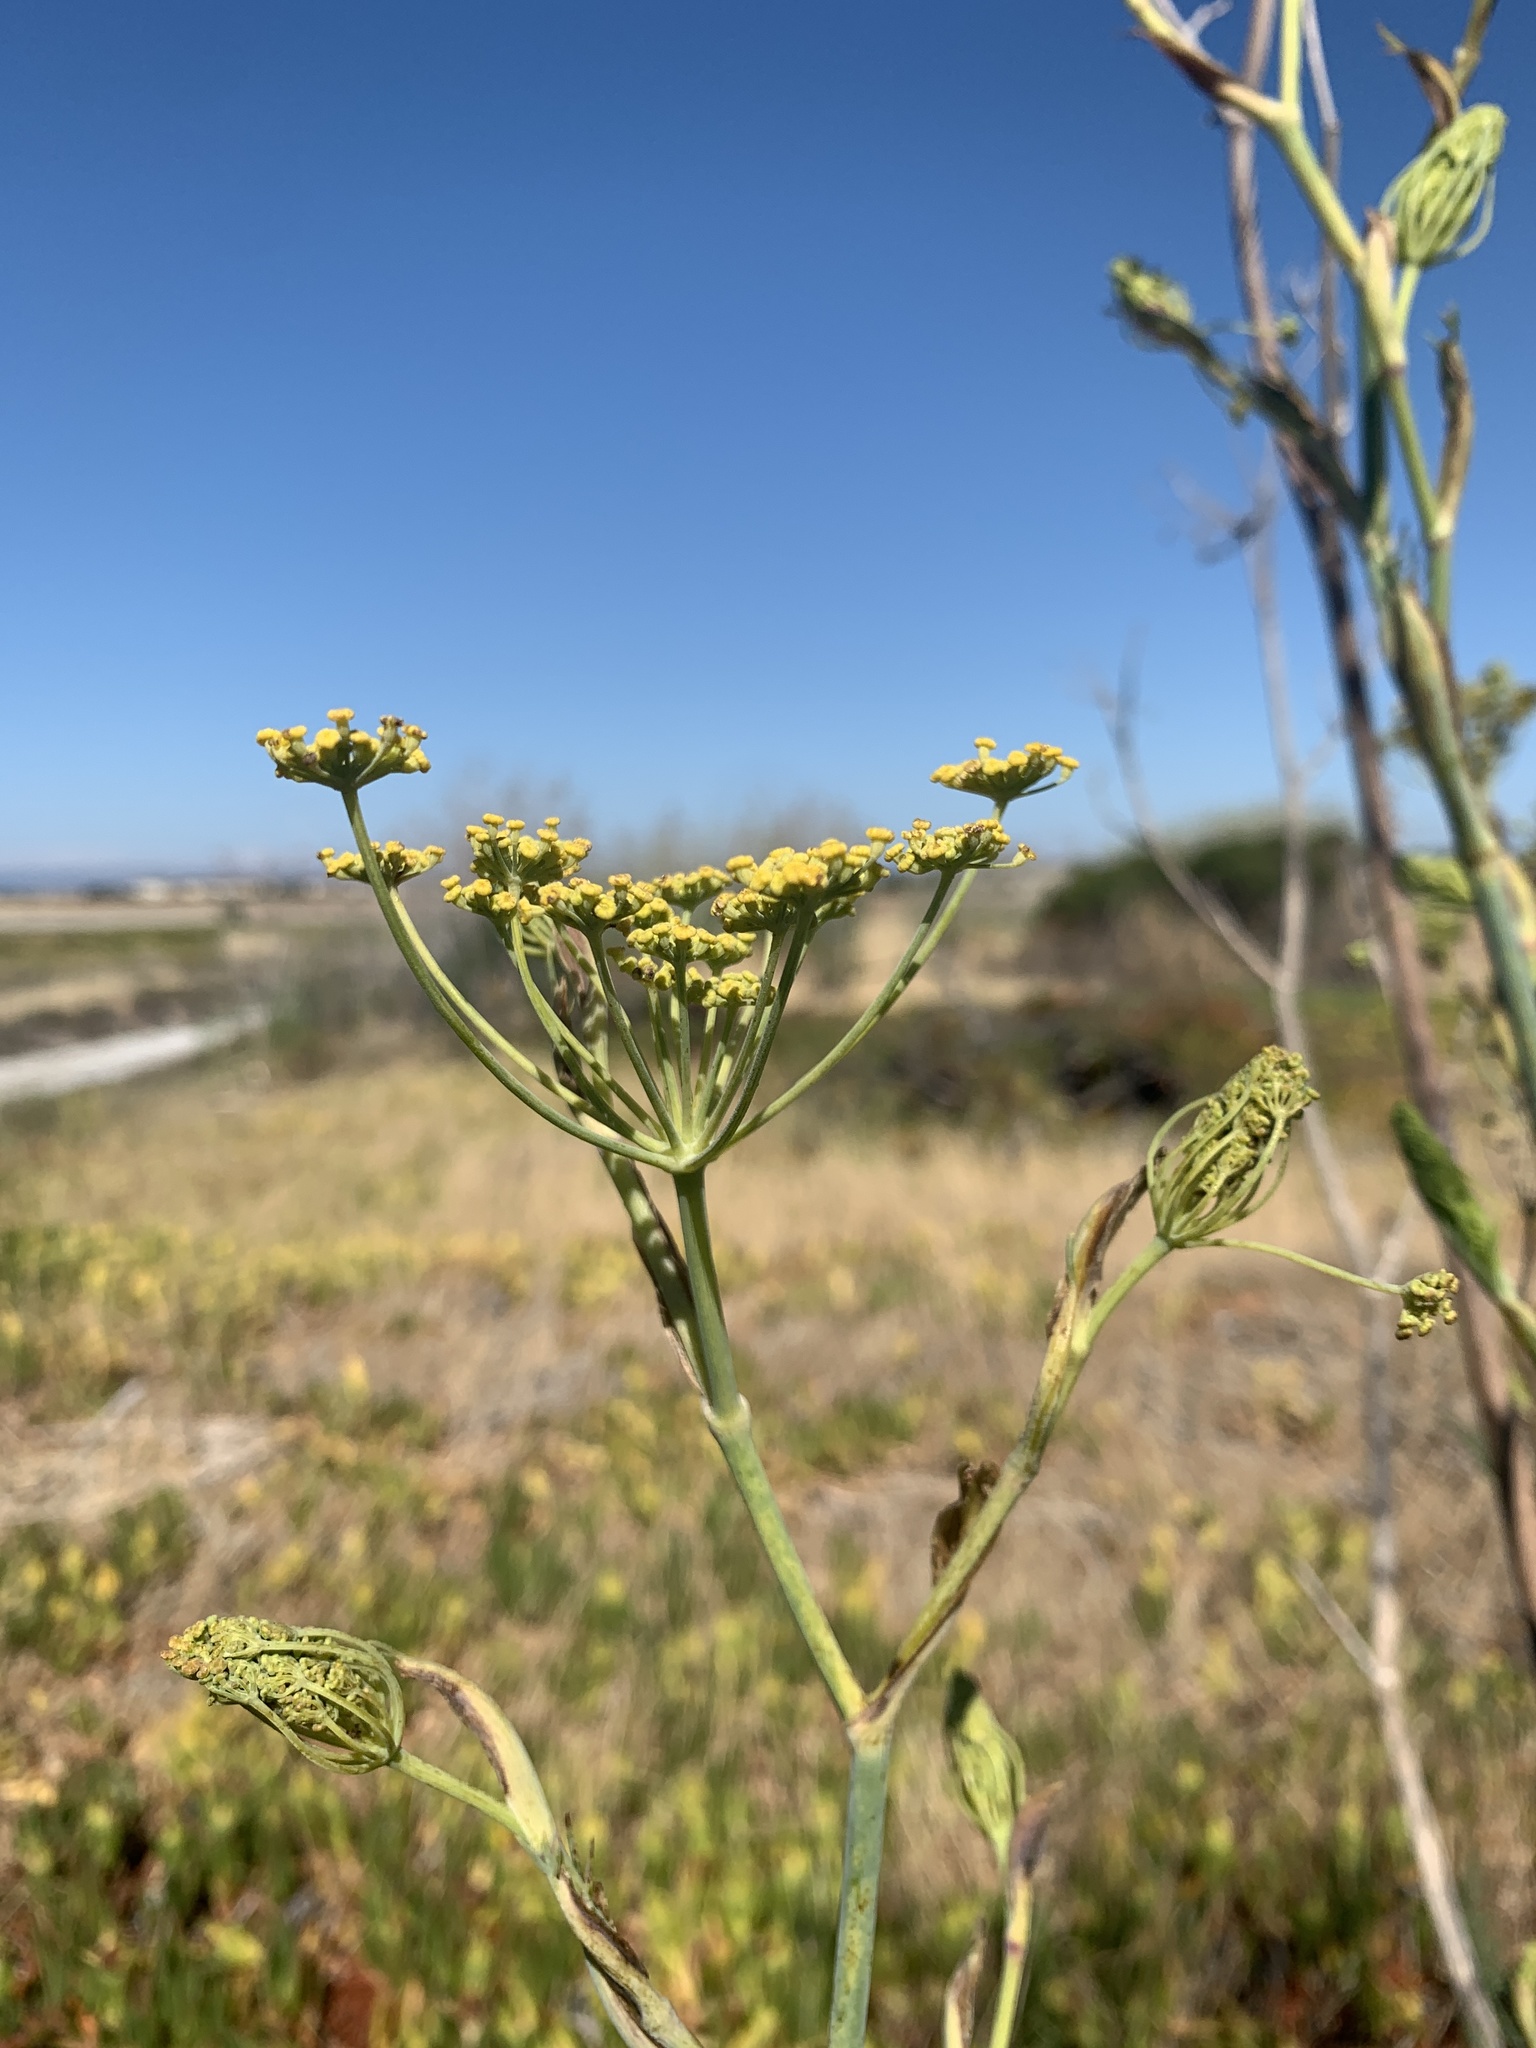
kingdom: Plantae
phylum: Tracheophyta
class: Magnoliopsida
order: Apiales
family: Apiaceae
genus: Foeniculum
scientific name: Foeniculum vulgare
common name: Fennel
